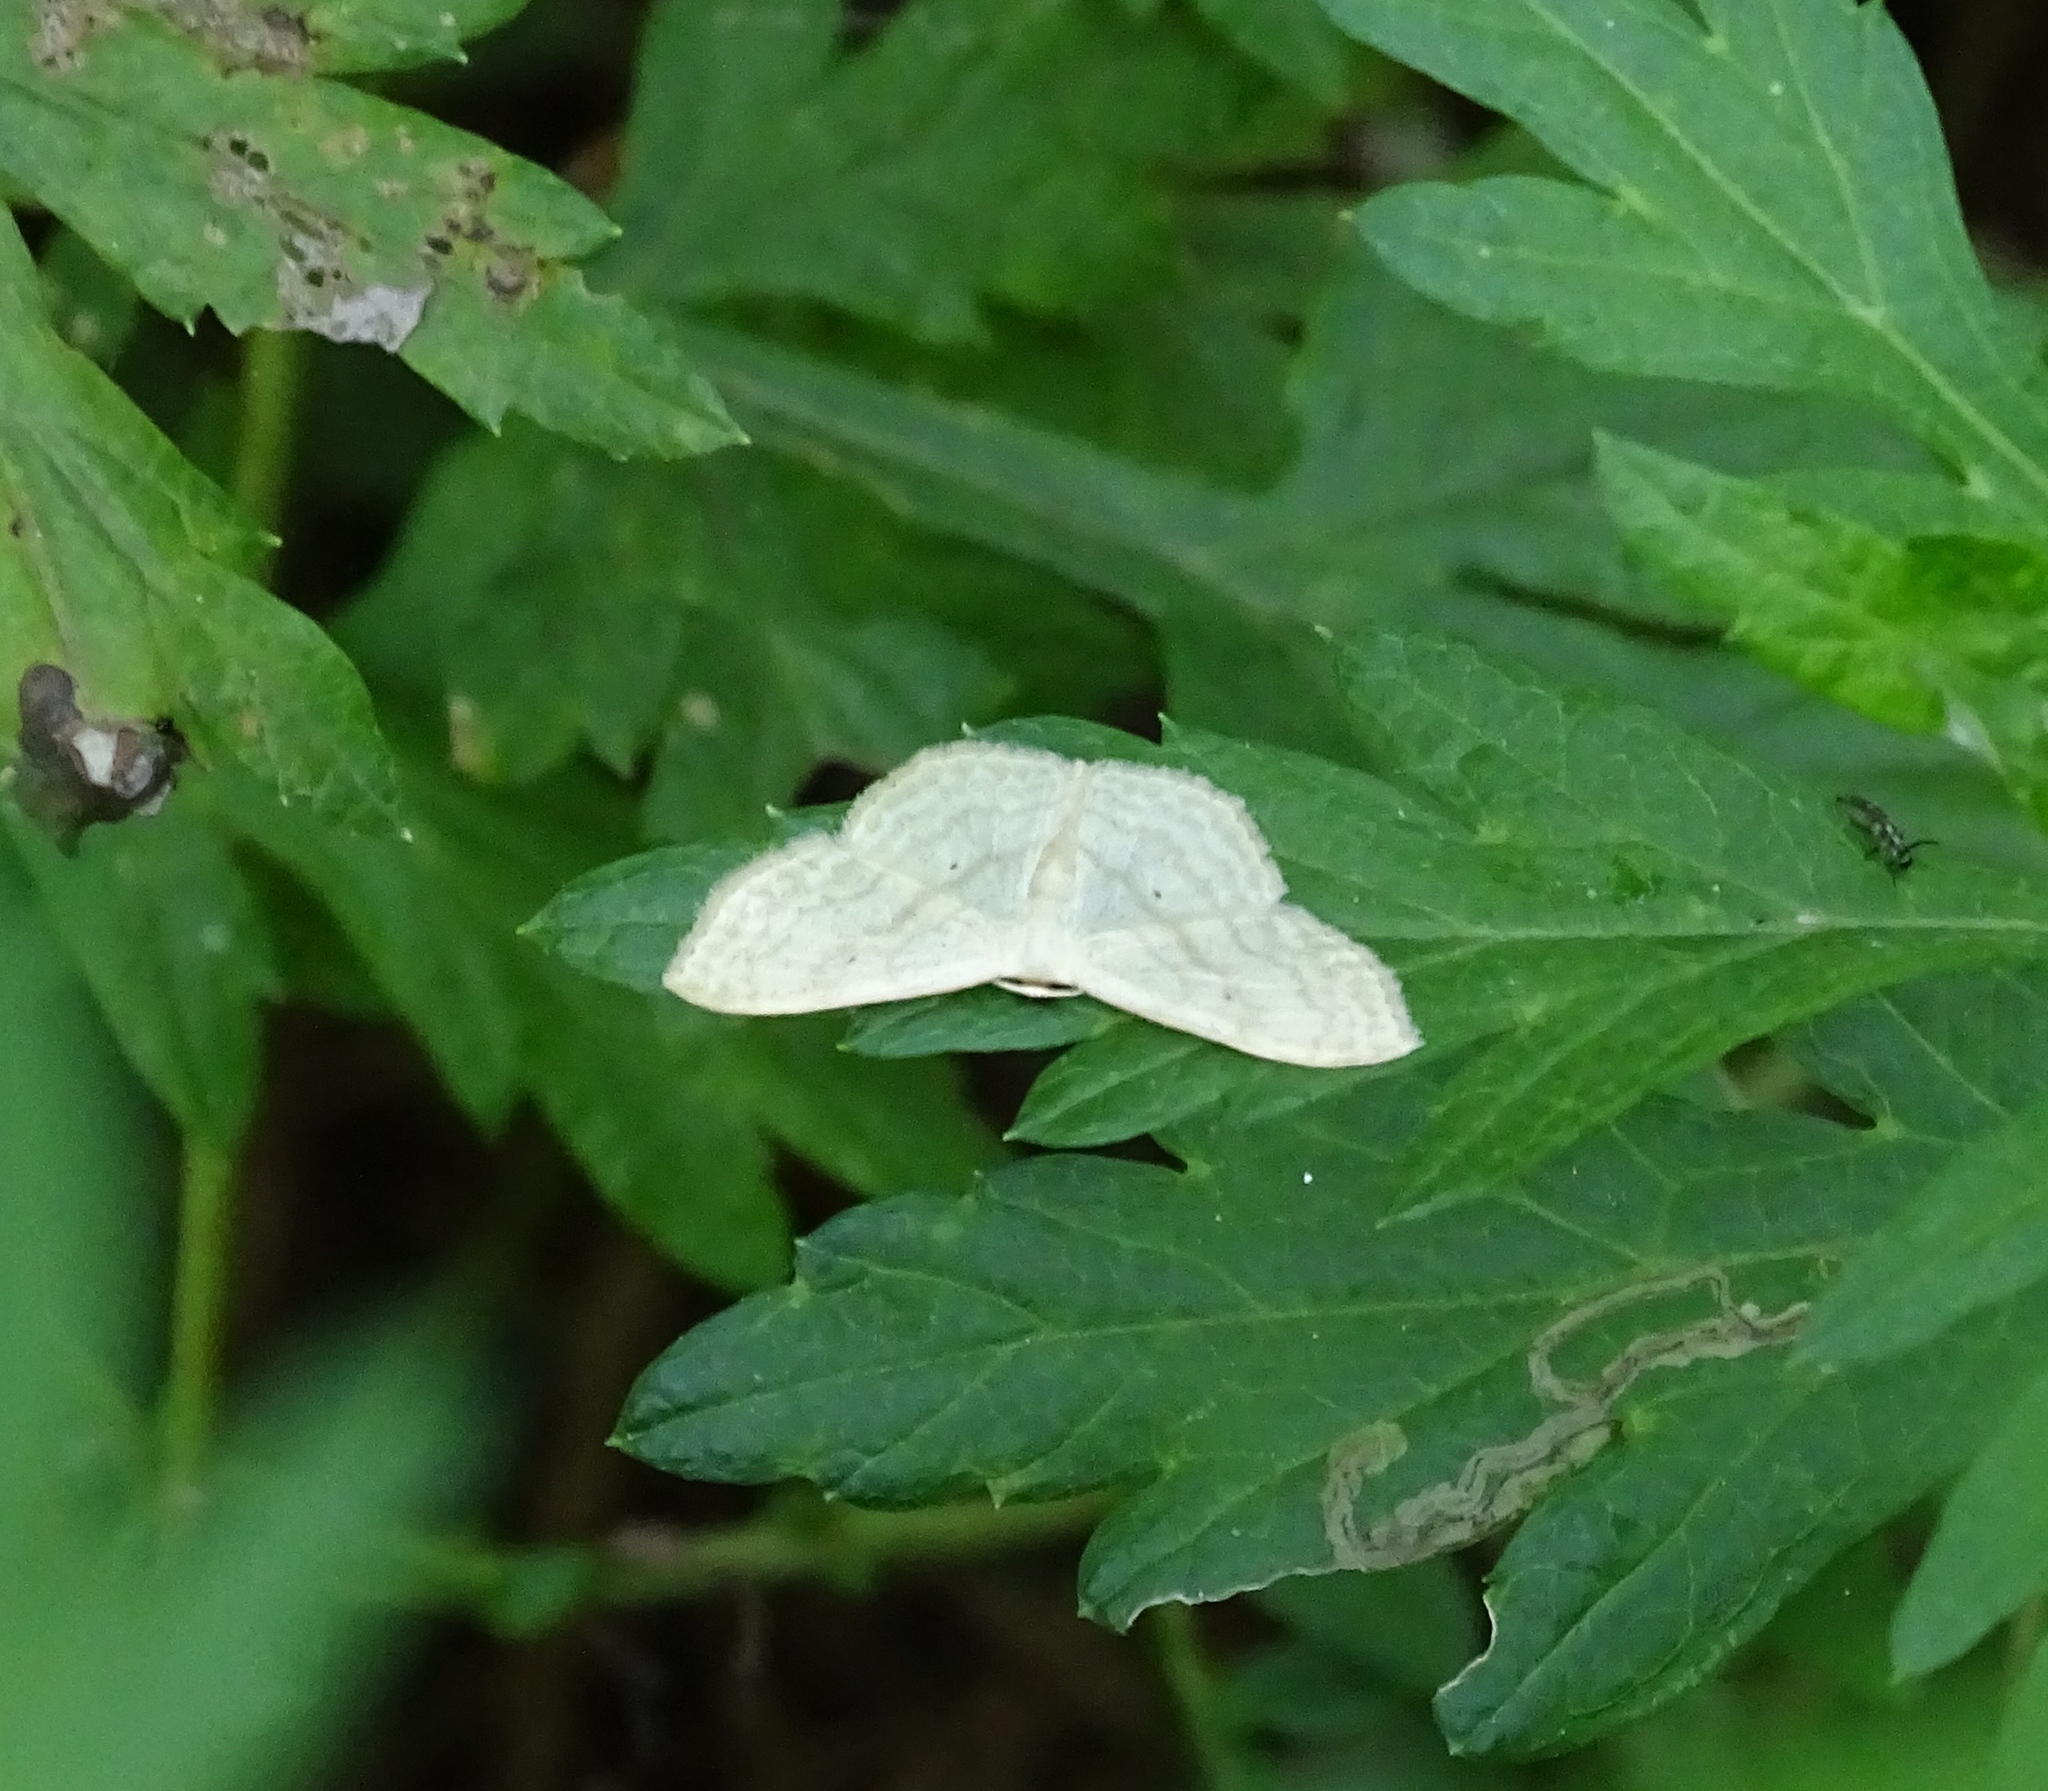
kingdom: Animalia
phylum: Arthropoda
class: Insecta
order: Lepidoptera
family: Geometridae
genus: Scopula
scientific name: Scopula limboundata
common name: Large lace border
